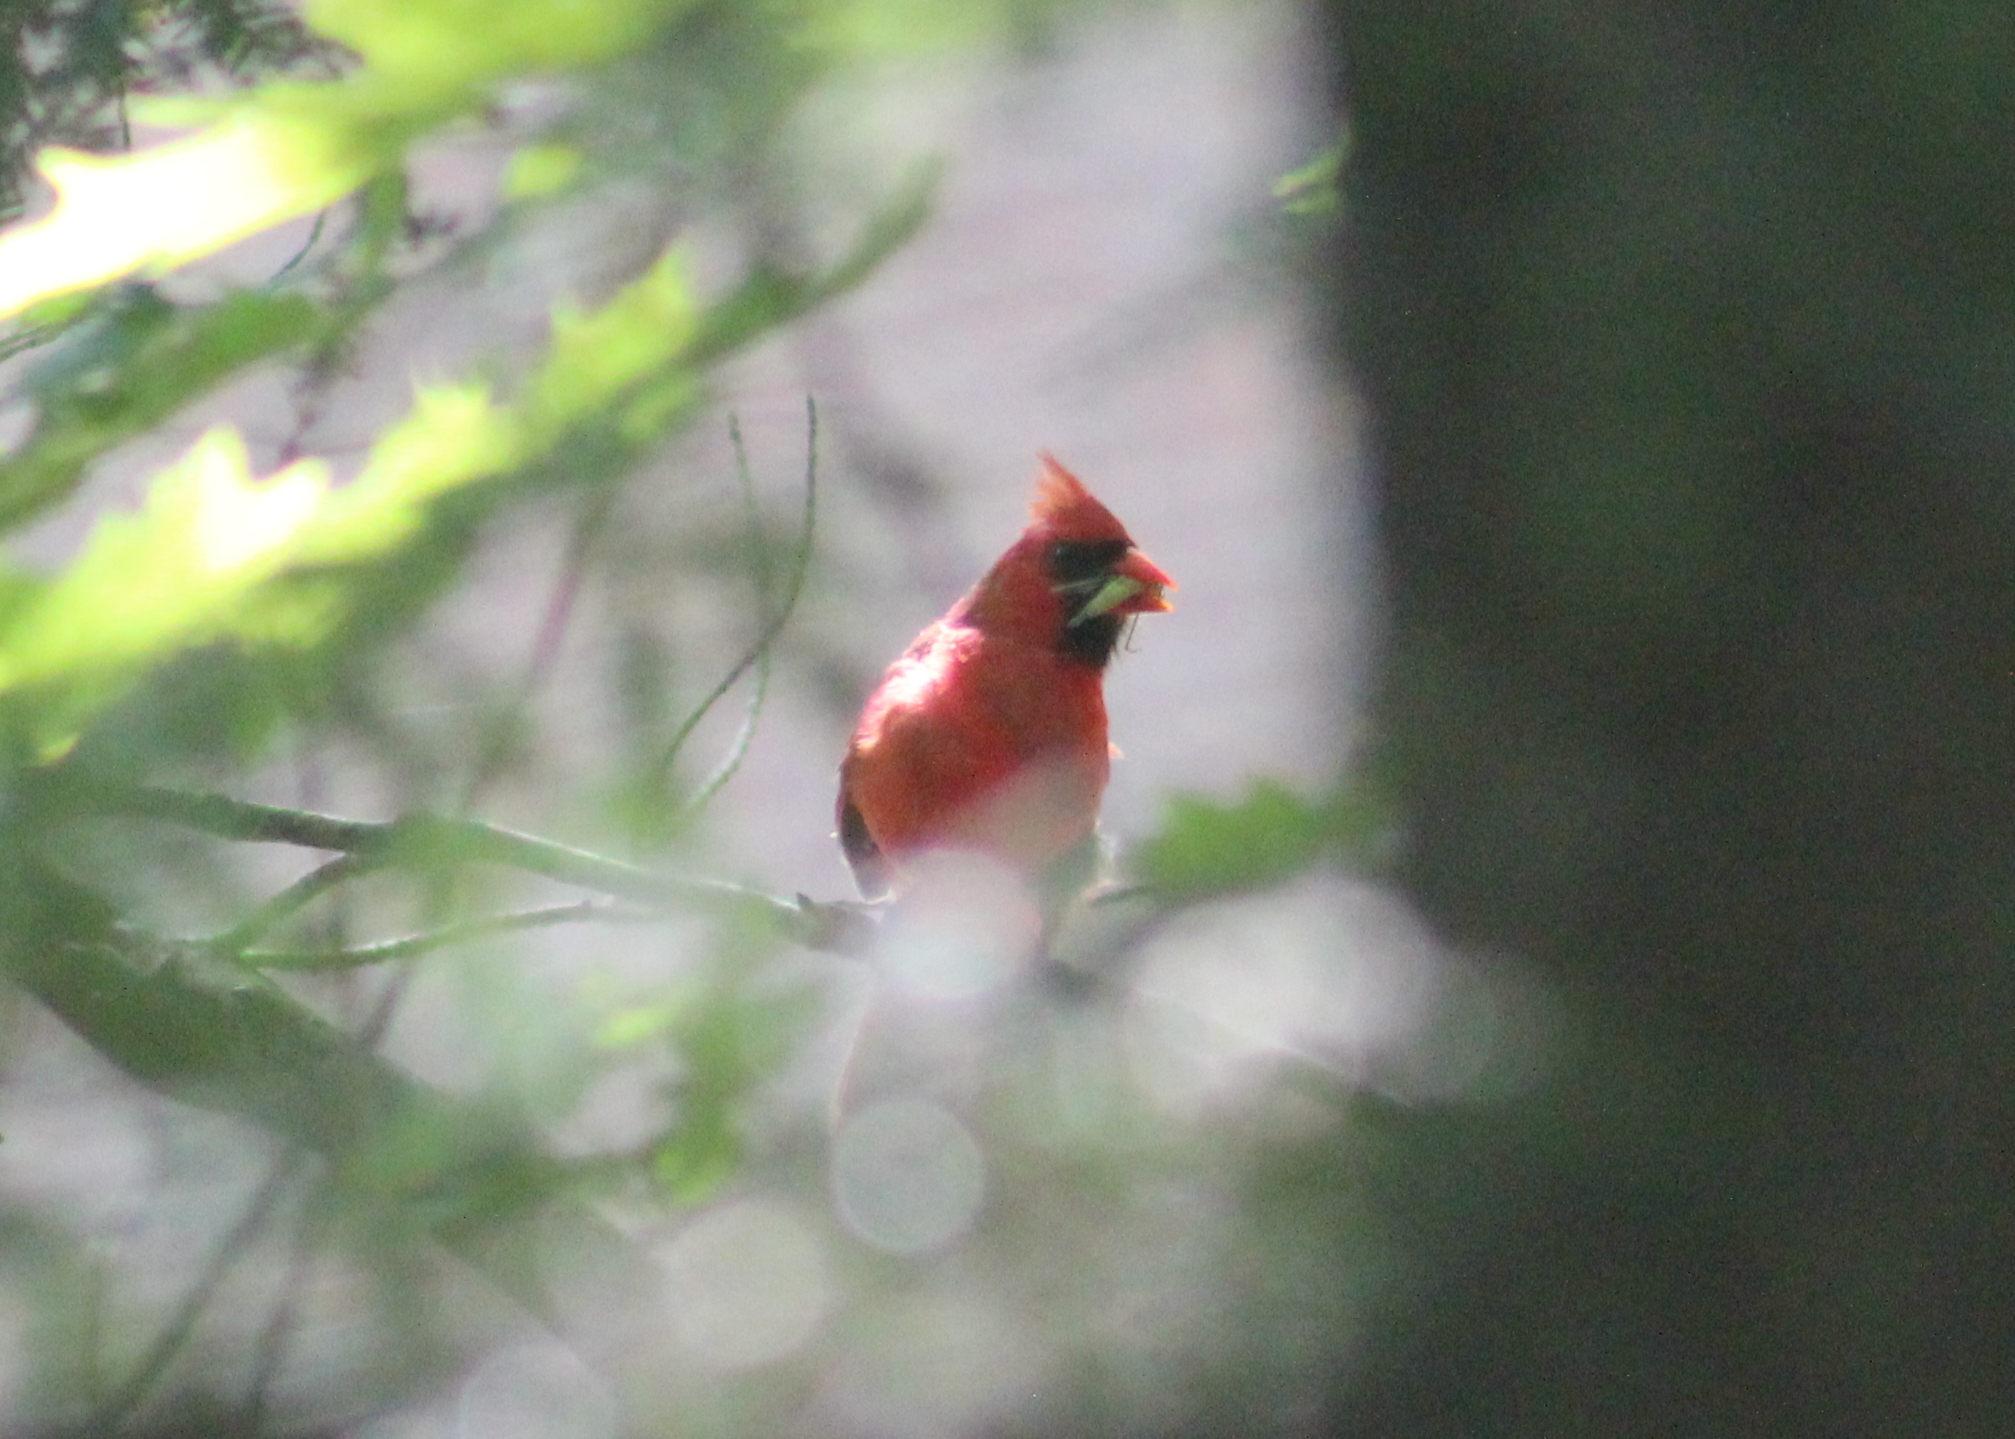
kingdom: Animalia
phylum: Chordata
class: Aves
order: Passeriformes
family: Cardinalidae
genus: Cardinalis
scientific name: Cardinalis cardinalis
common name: Northern cardinal
